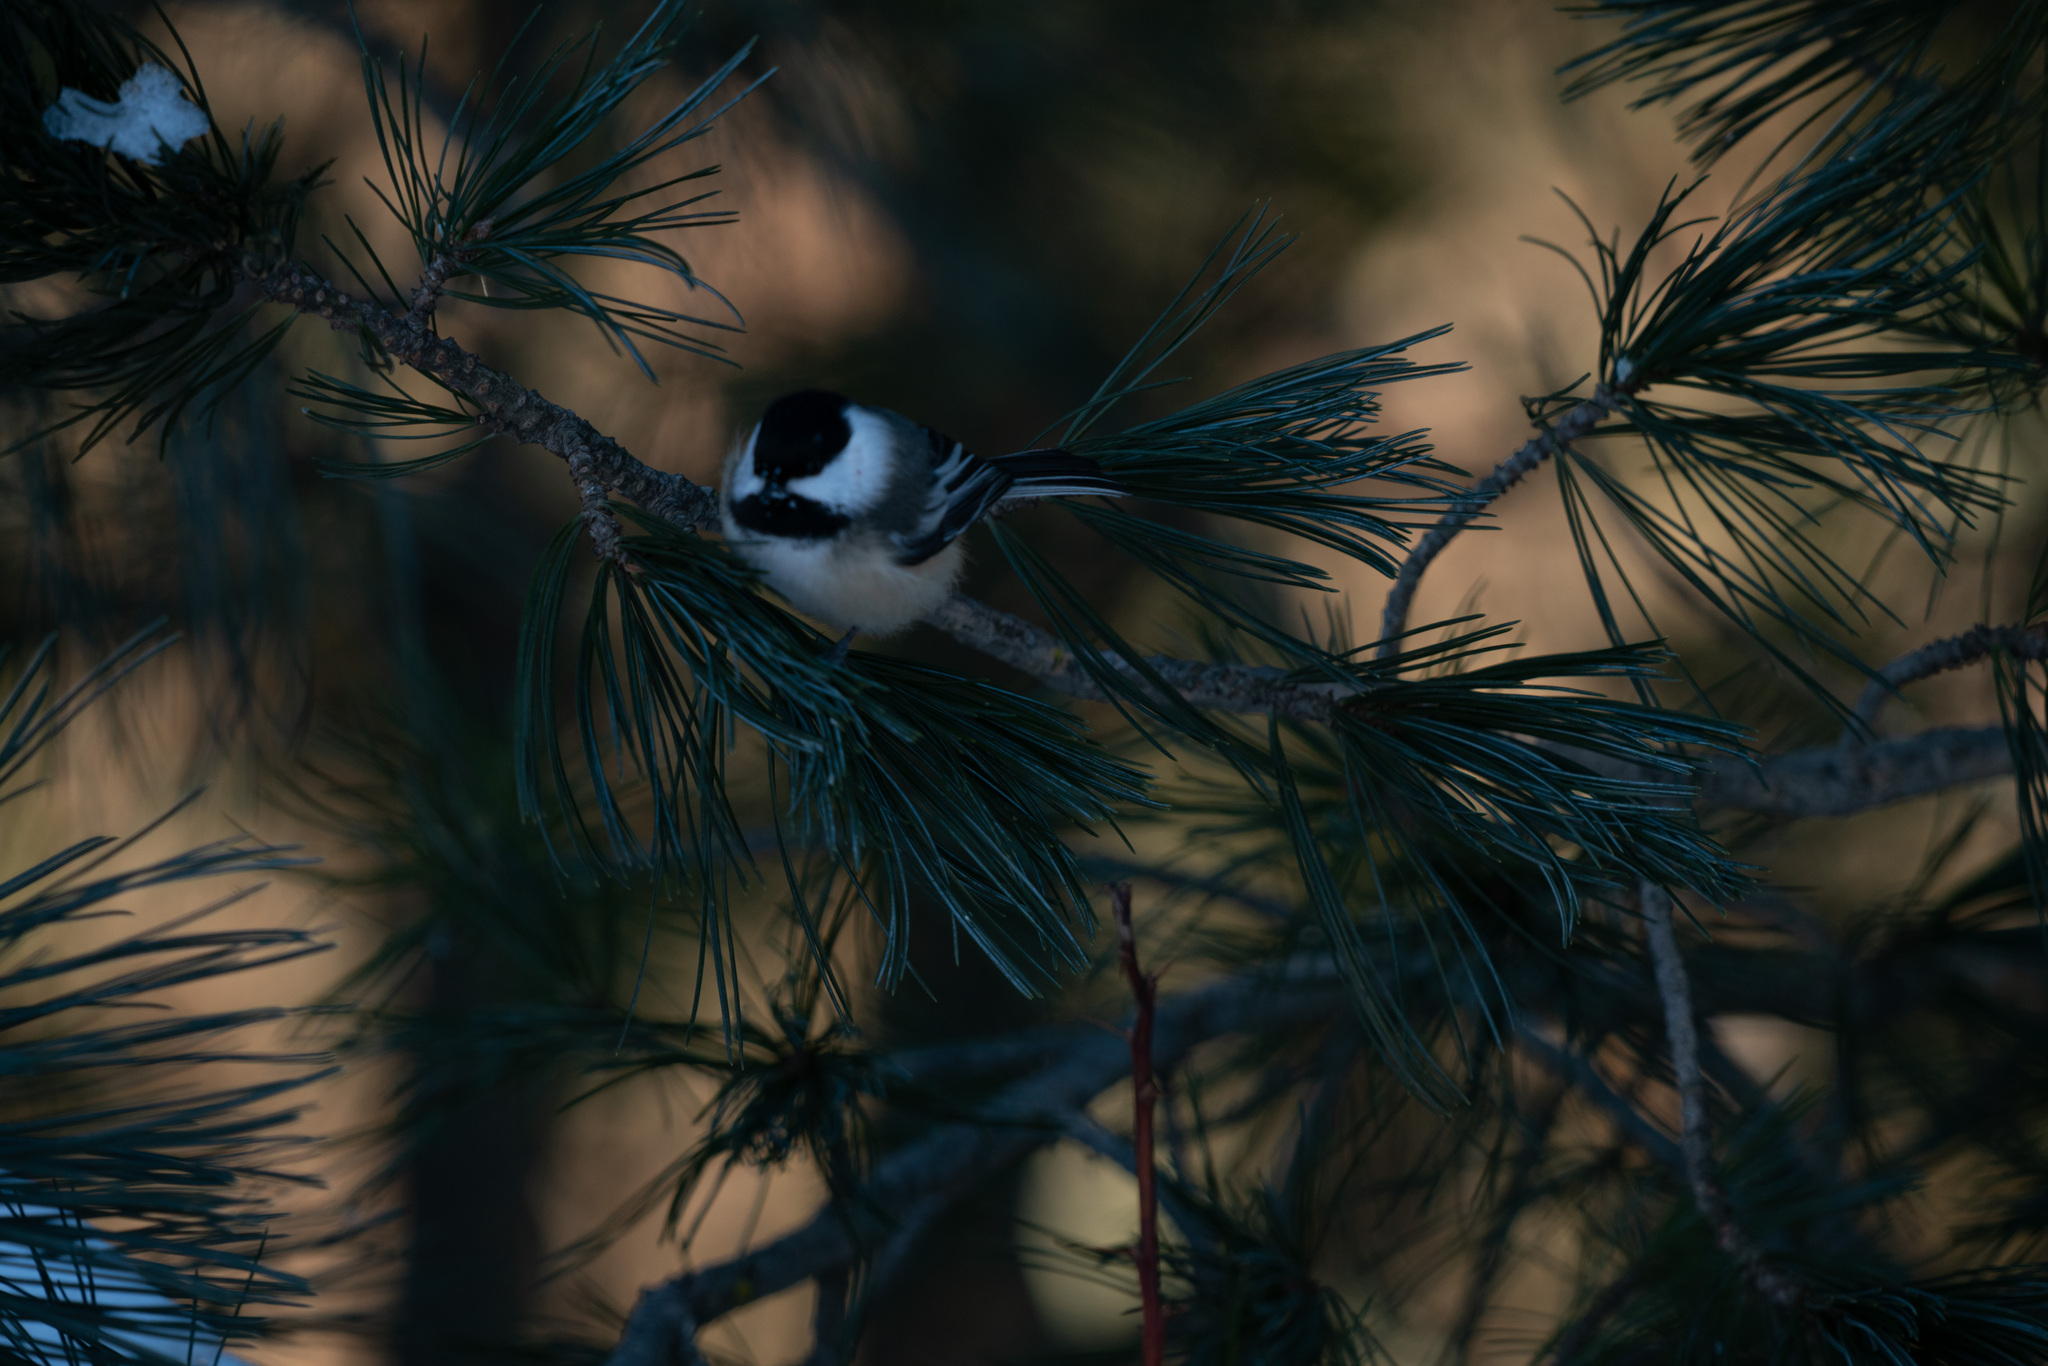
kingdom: Animalia
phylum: Chordata
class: Aves
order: Passeriformes
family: Paridae
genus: Poecile
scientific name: Poecile atricapillus
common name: Black-capped chickadee
